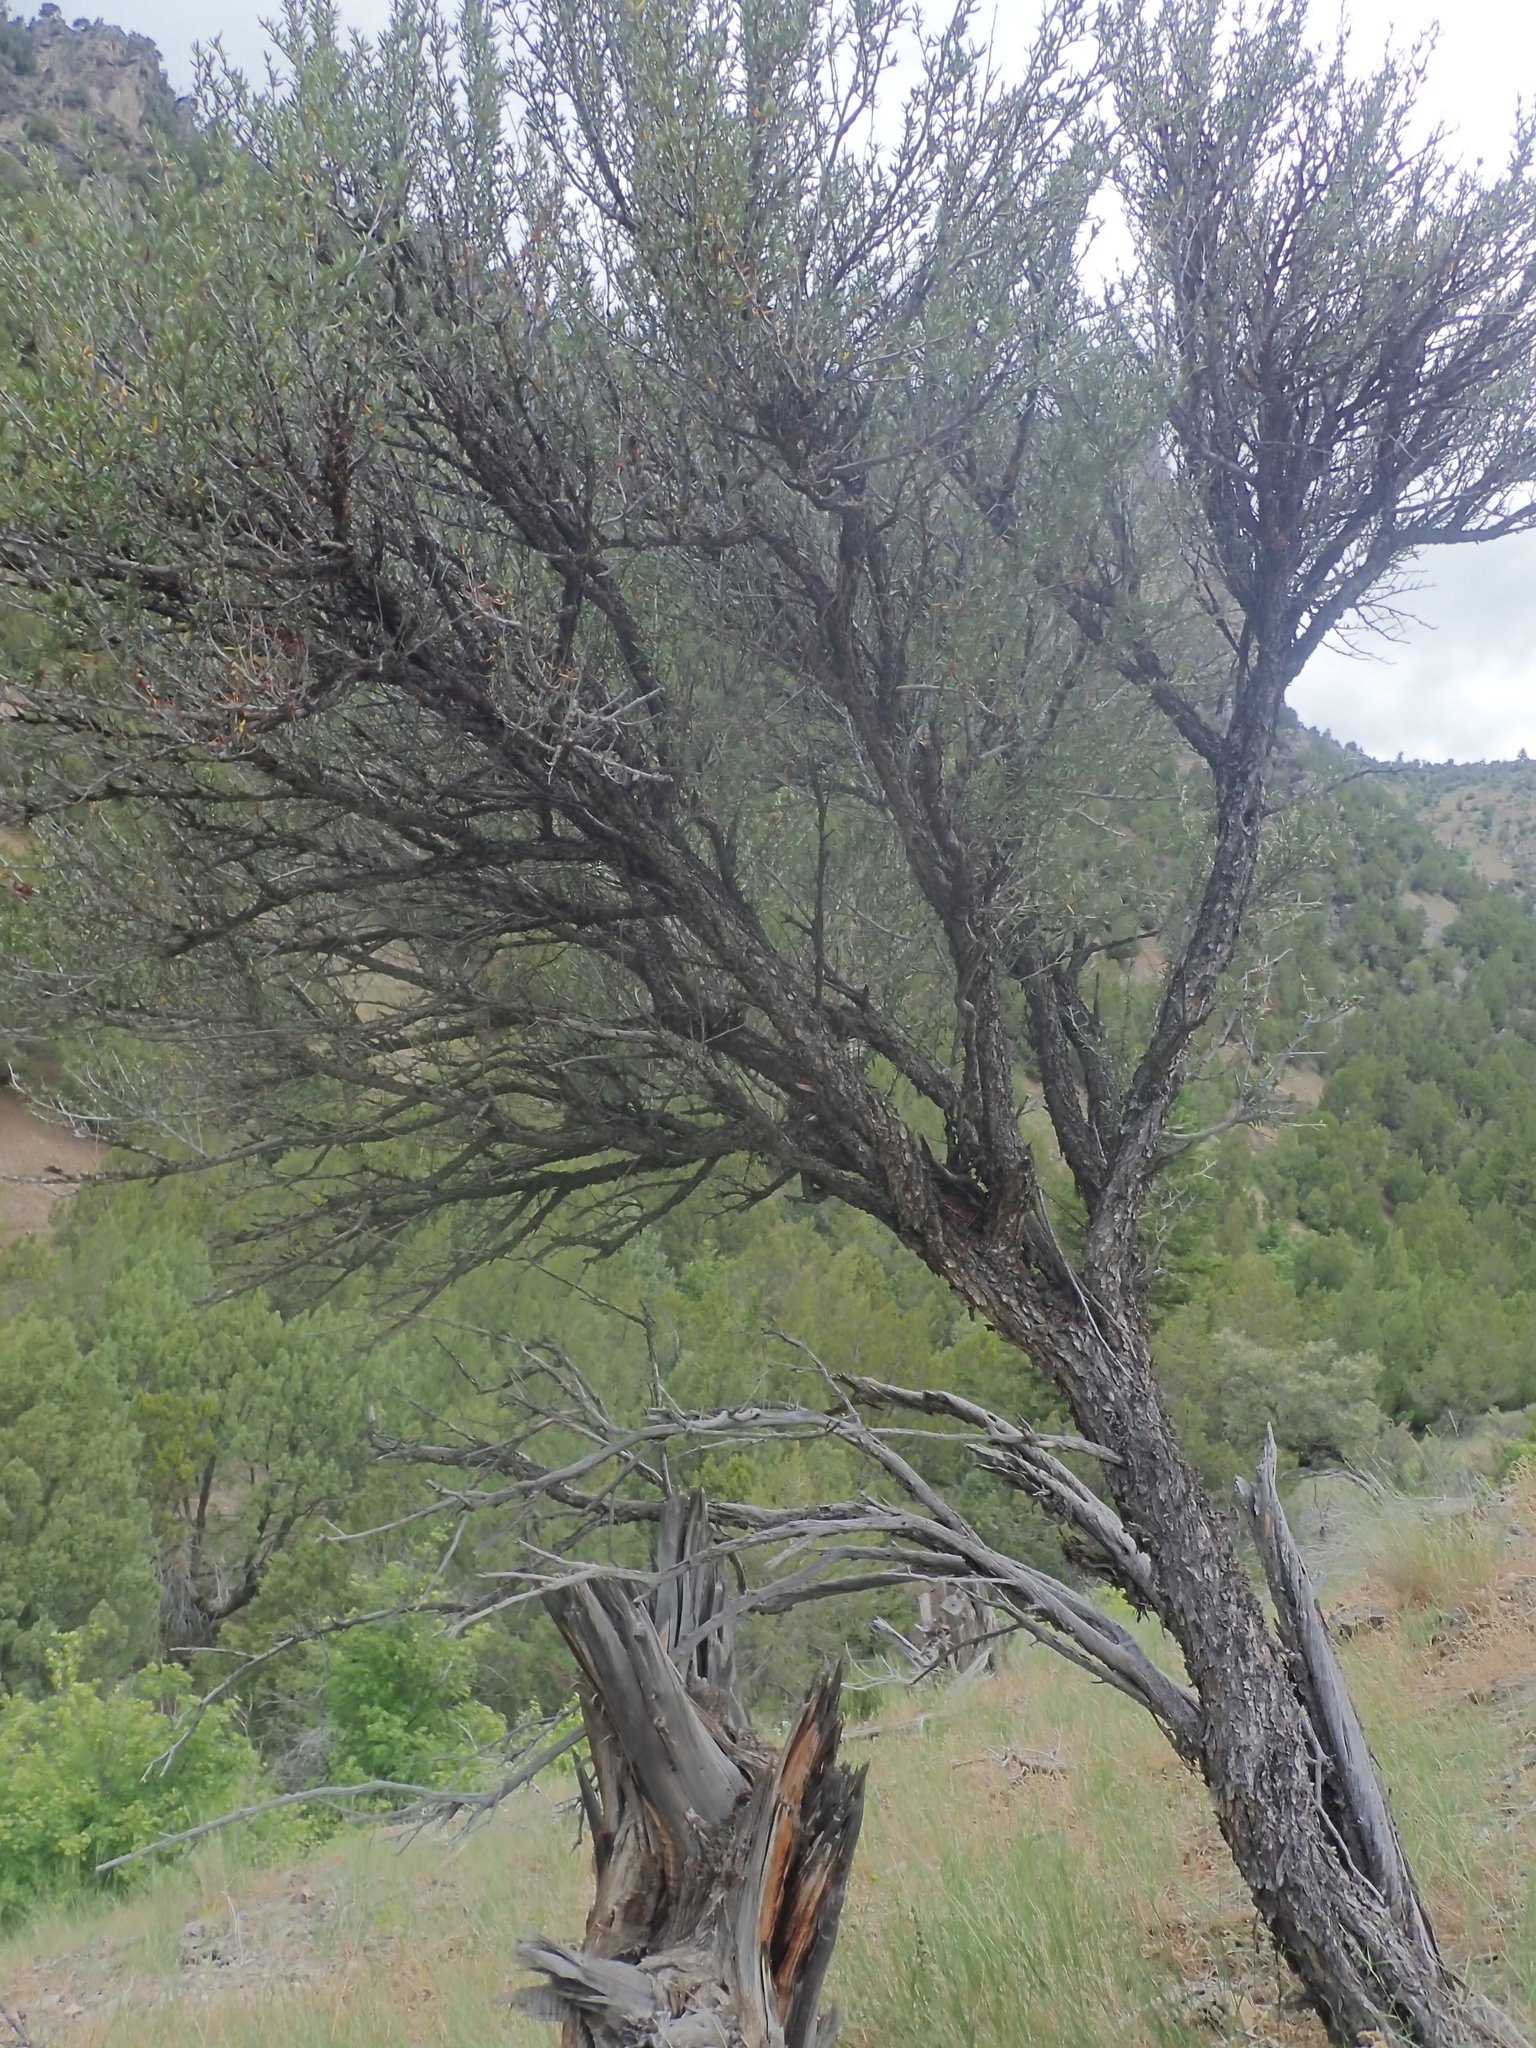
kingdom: Plantae
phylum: Tracheophyta
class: Magnoliopsida
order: Rosales
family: Rosaceae
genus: Cercocarpus
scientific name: Cercocarpus ledifolius
